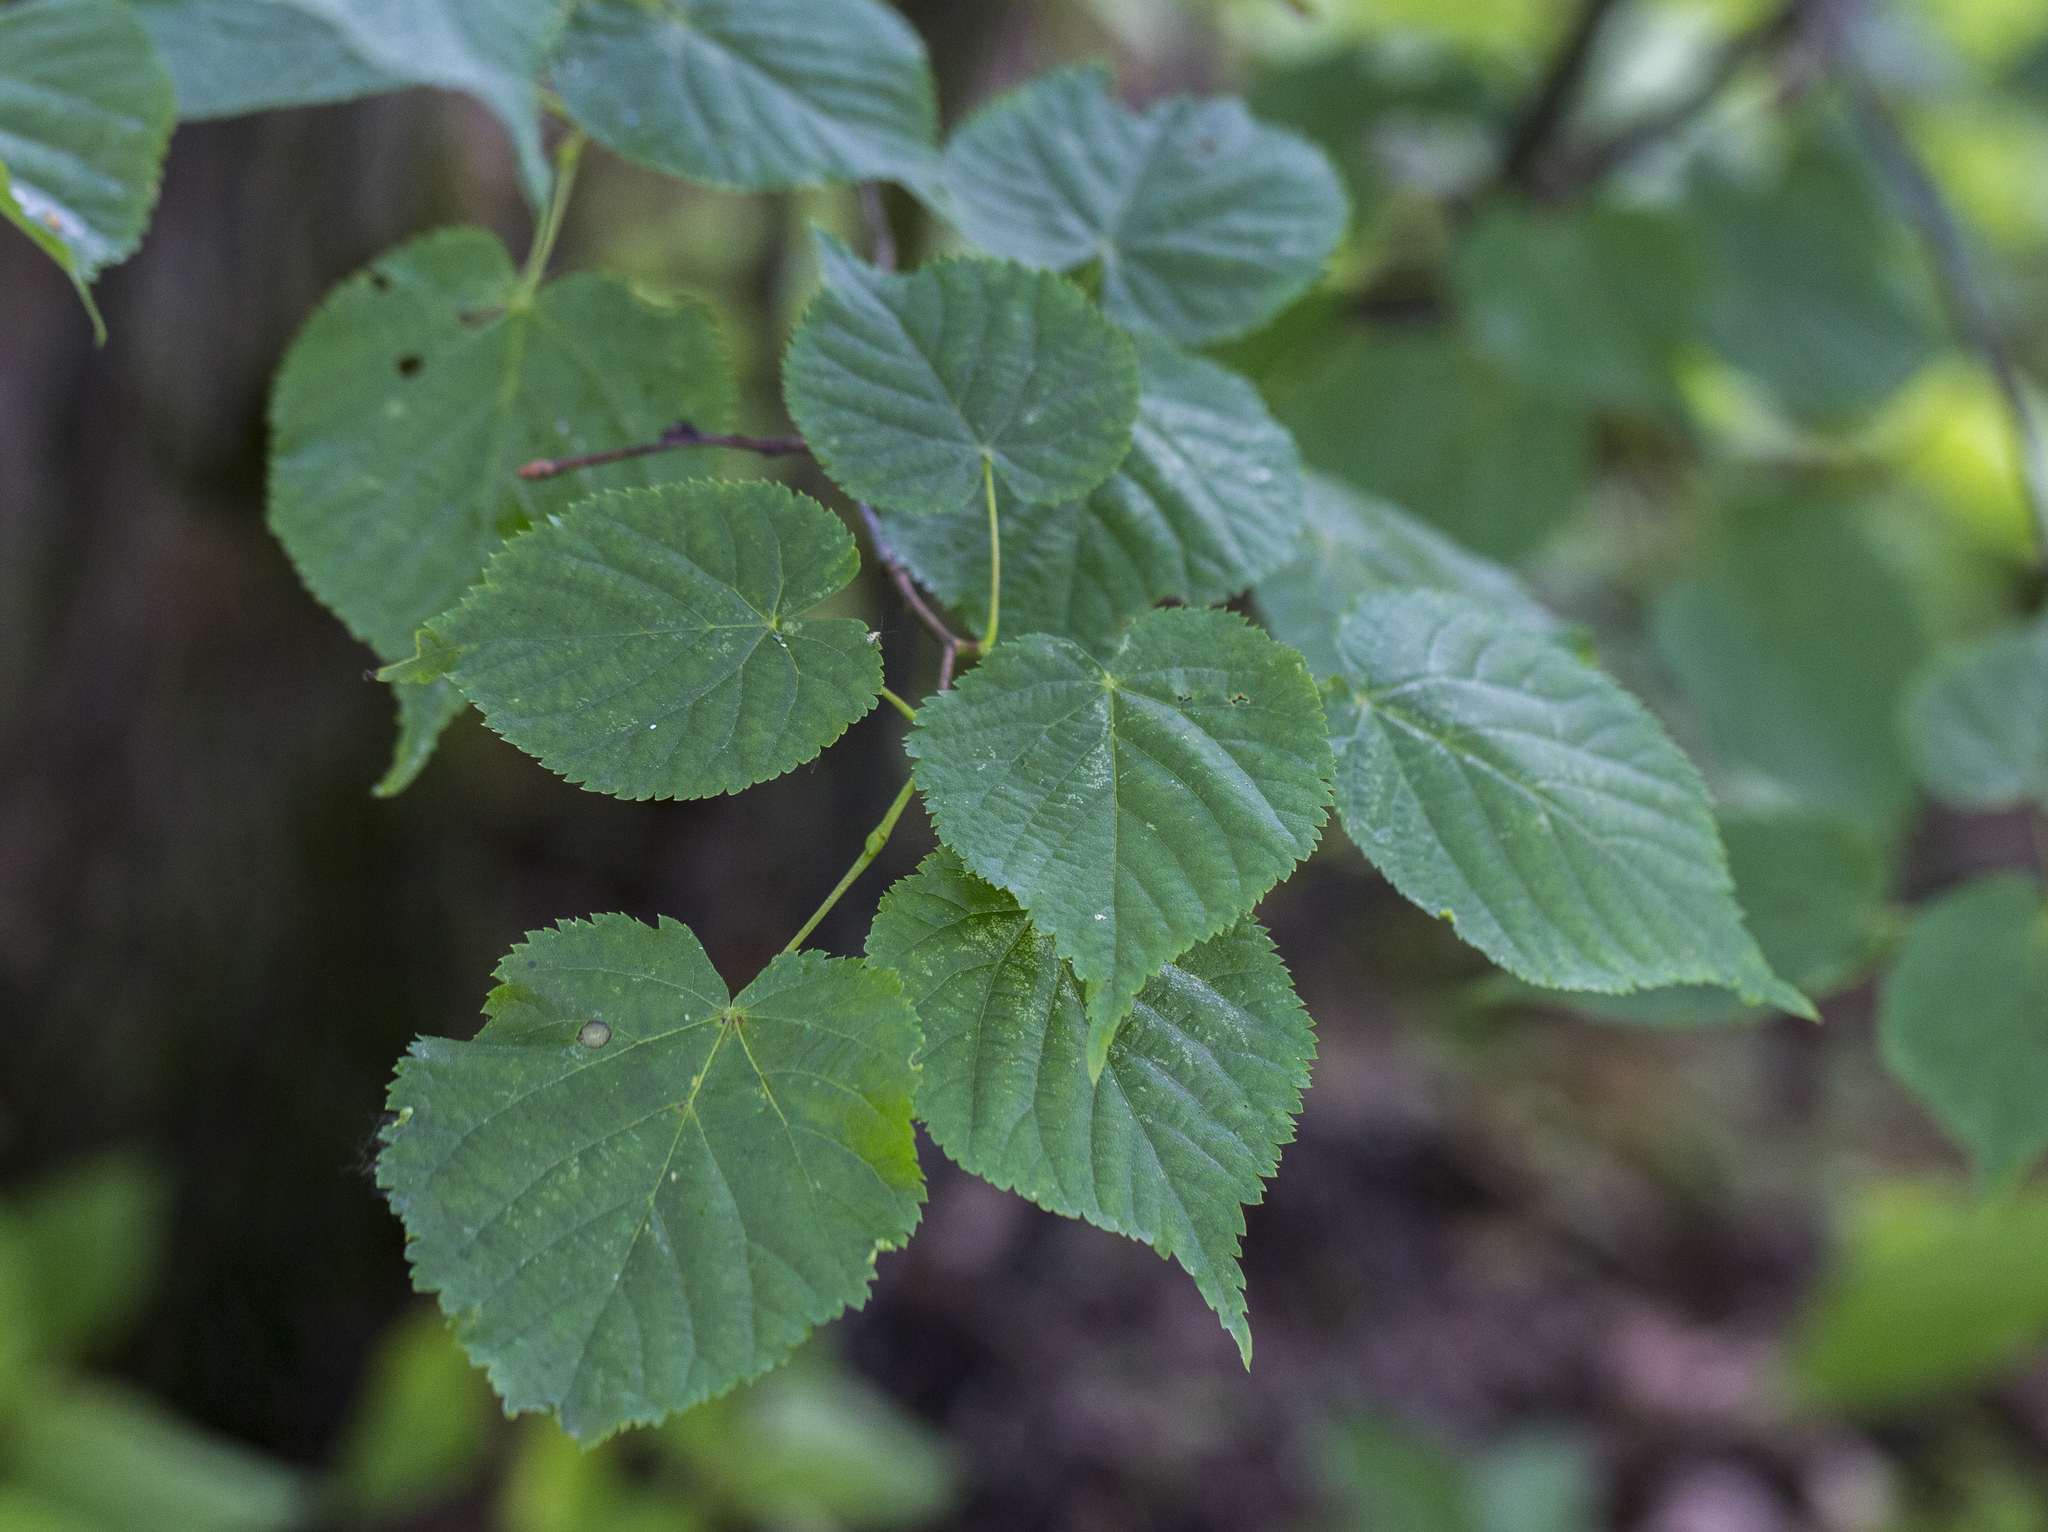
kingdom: Plantae
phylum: Tracheophyta
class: Magnoliopsida
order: Malvales
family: Malvaceae
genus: Tilia
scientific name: Tilia cordata
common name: Small-leaved lime
